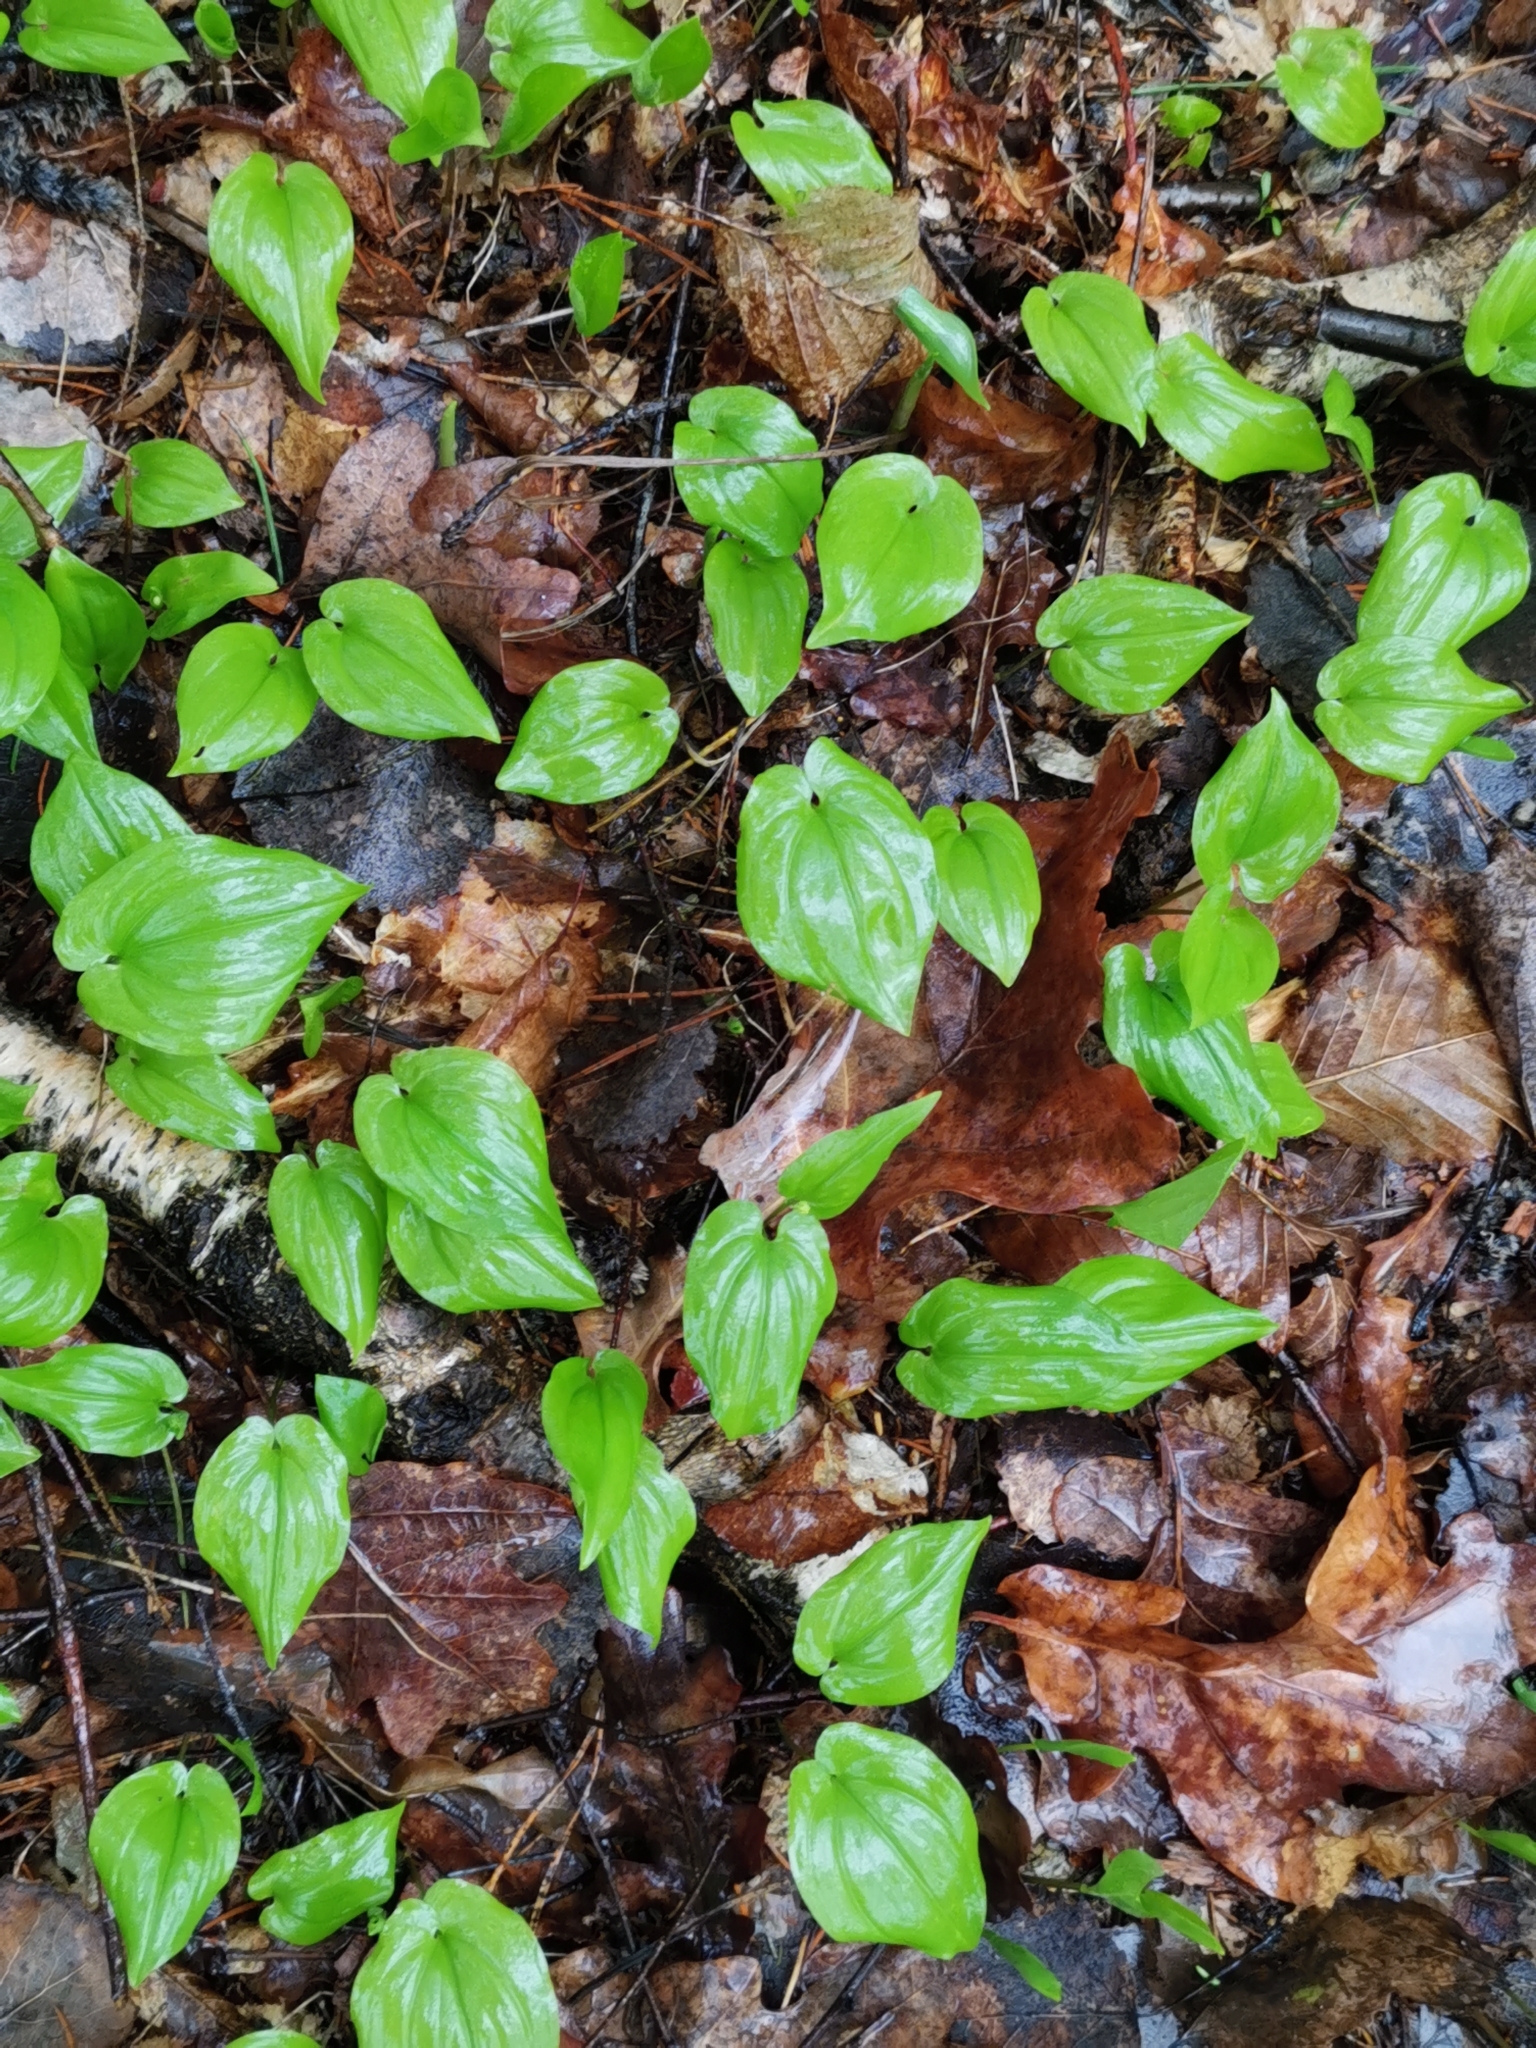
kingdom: Plantae
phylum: Tracheophyta
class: Liliopsida
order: Asparagales
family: Asparagaceae
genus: Maianthemum
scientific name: Maianthemum bifolium
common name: May lily
